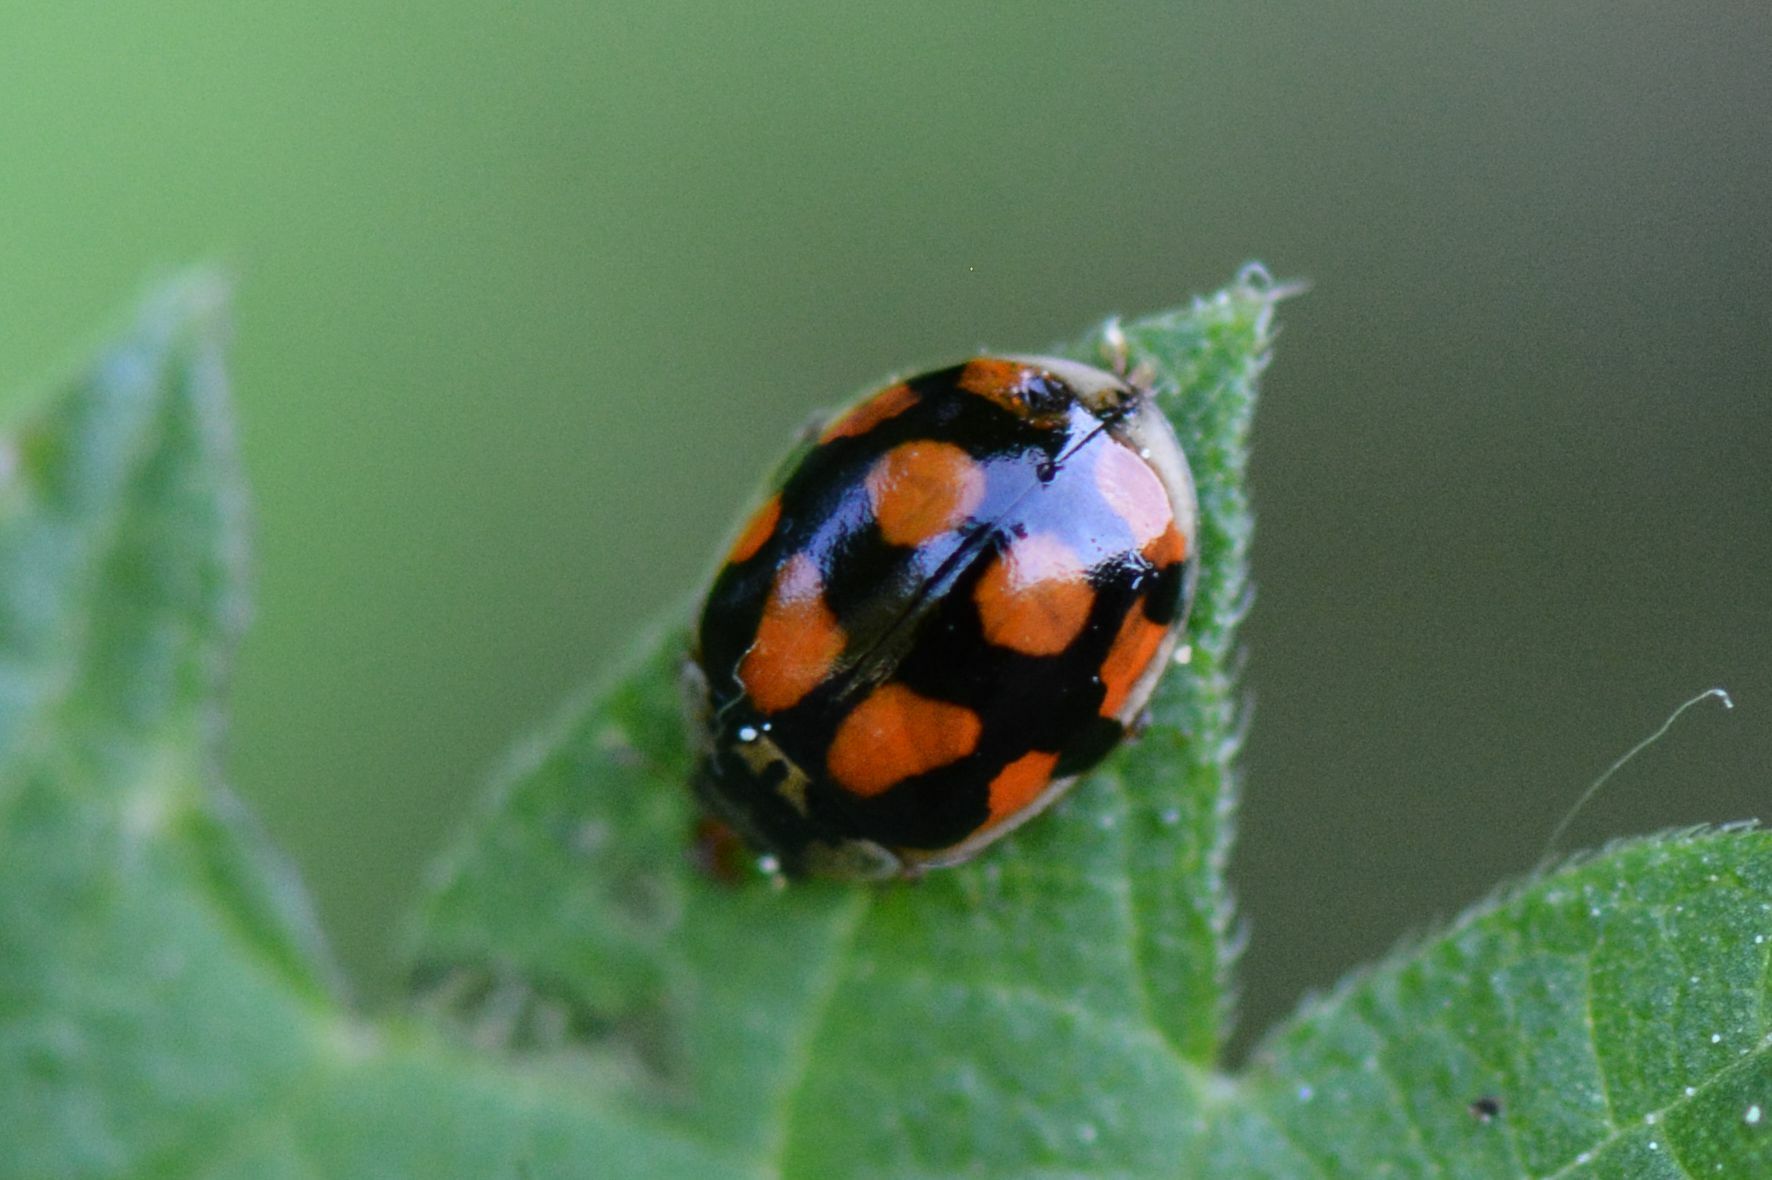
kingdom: Animalia
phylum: Arthropoda
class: Insecta
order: Coleoptera
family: Coccinellidae
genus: Adalia
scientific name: Adalia decempunctata
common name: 10-spot ladybird
